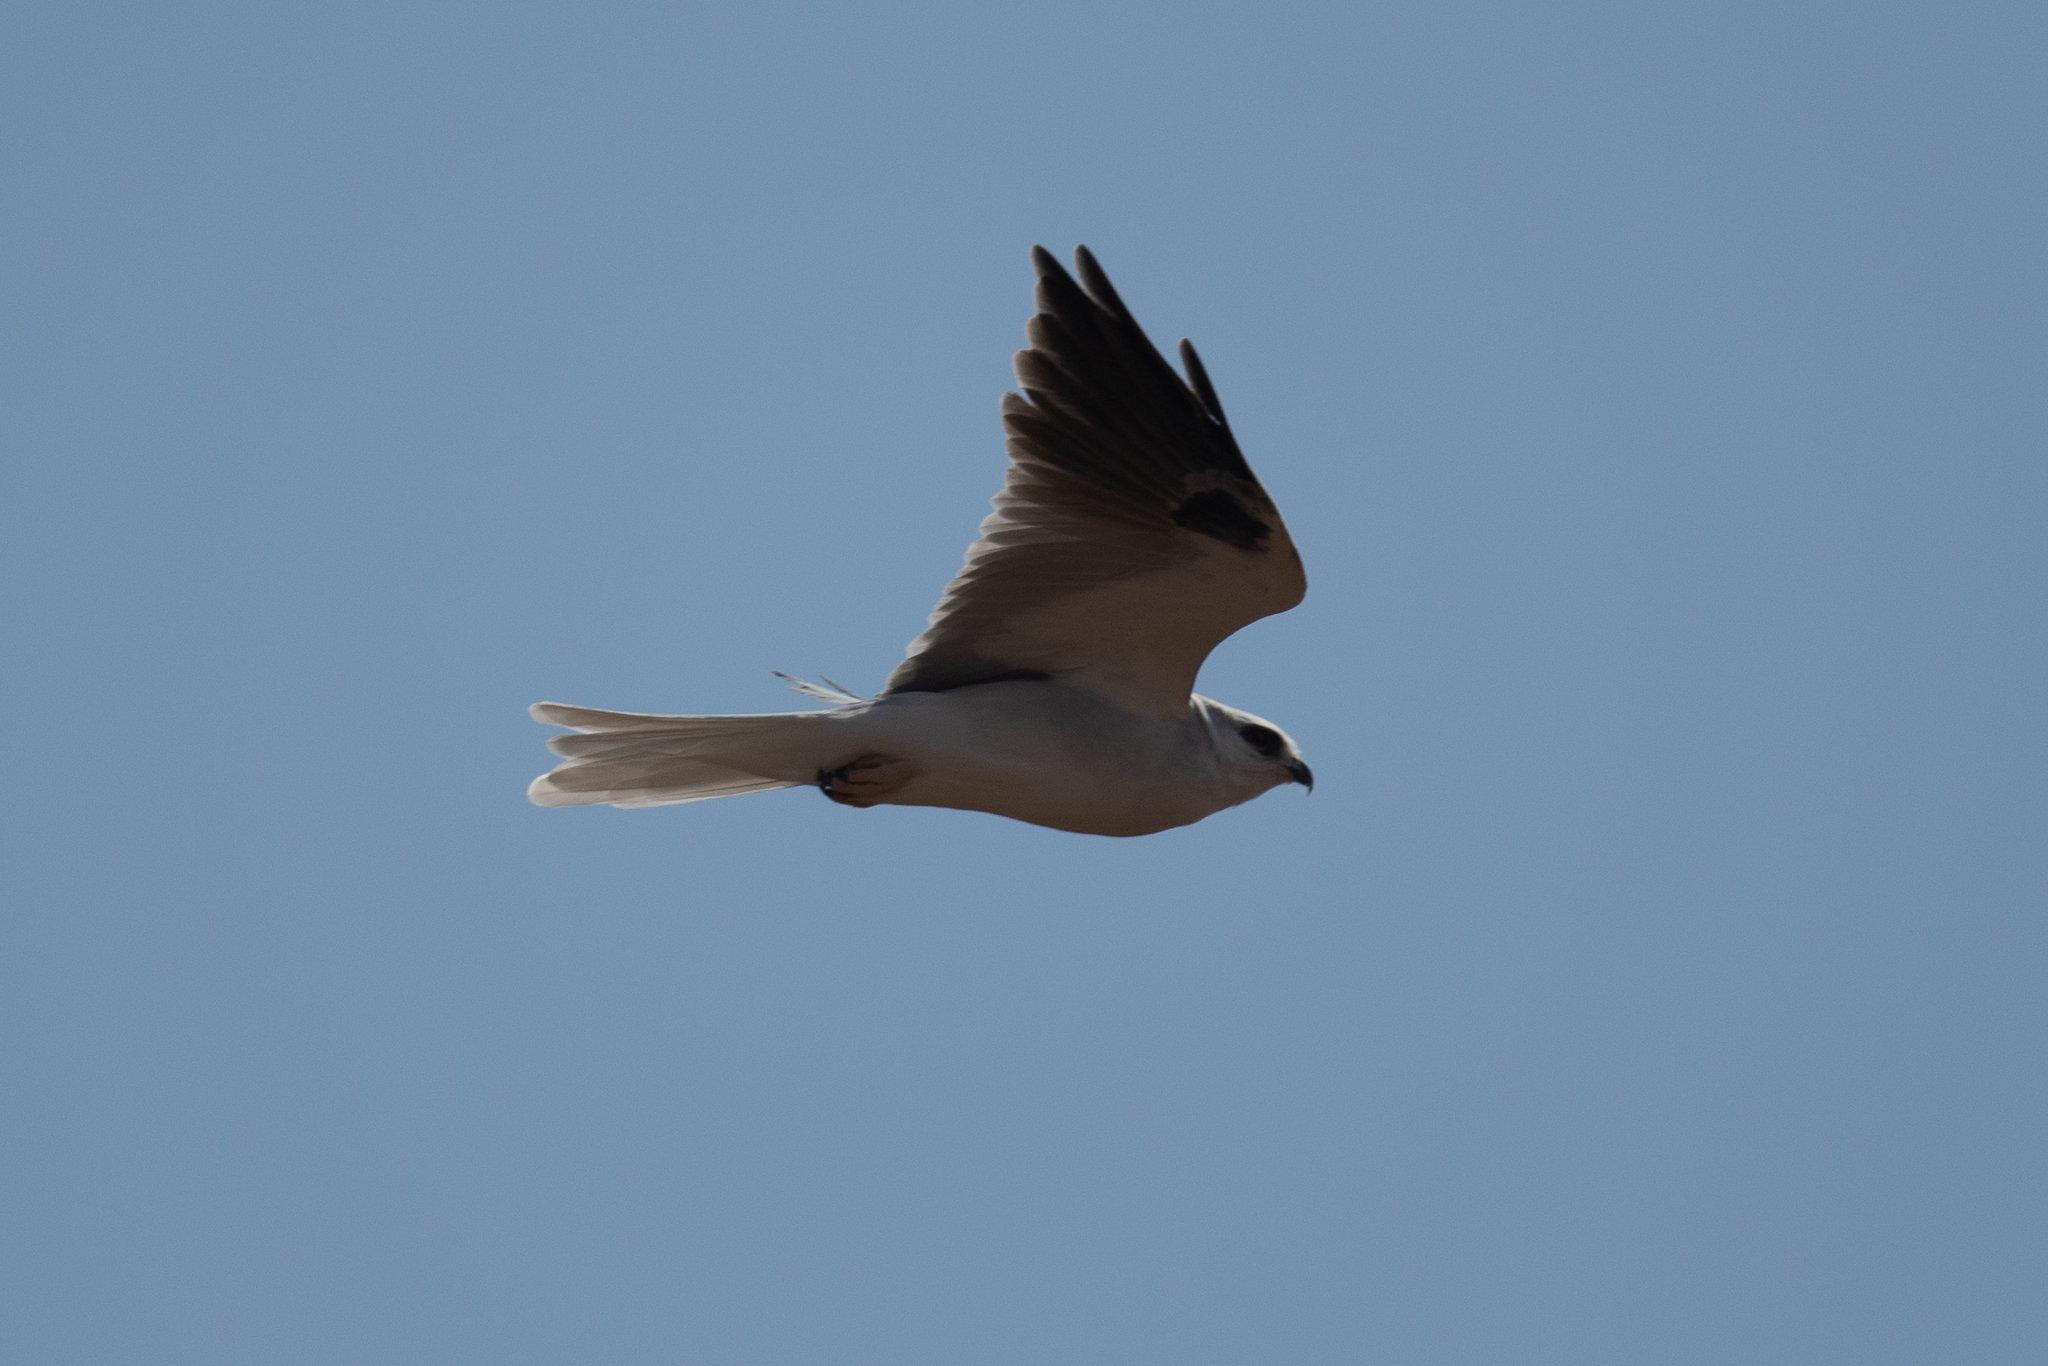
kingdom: Animalia
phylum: Chordata
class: Aves
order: Accipitriformes
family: Accipitridae
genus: Elanus
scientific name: Elanus leucurus
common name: White-tailed kite
